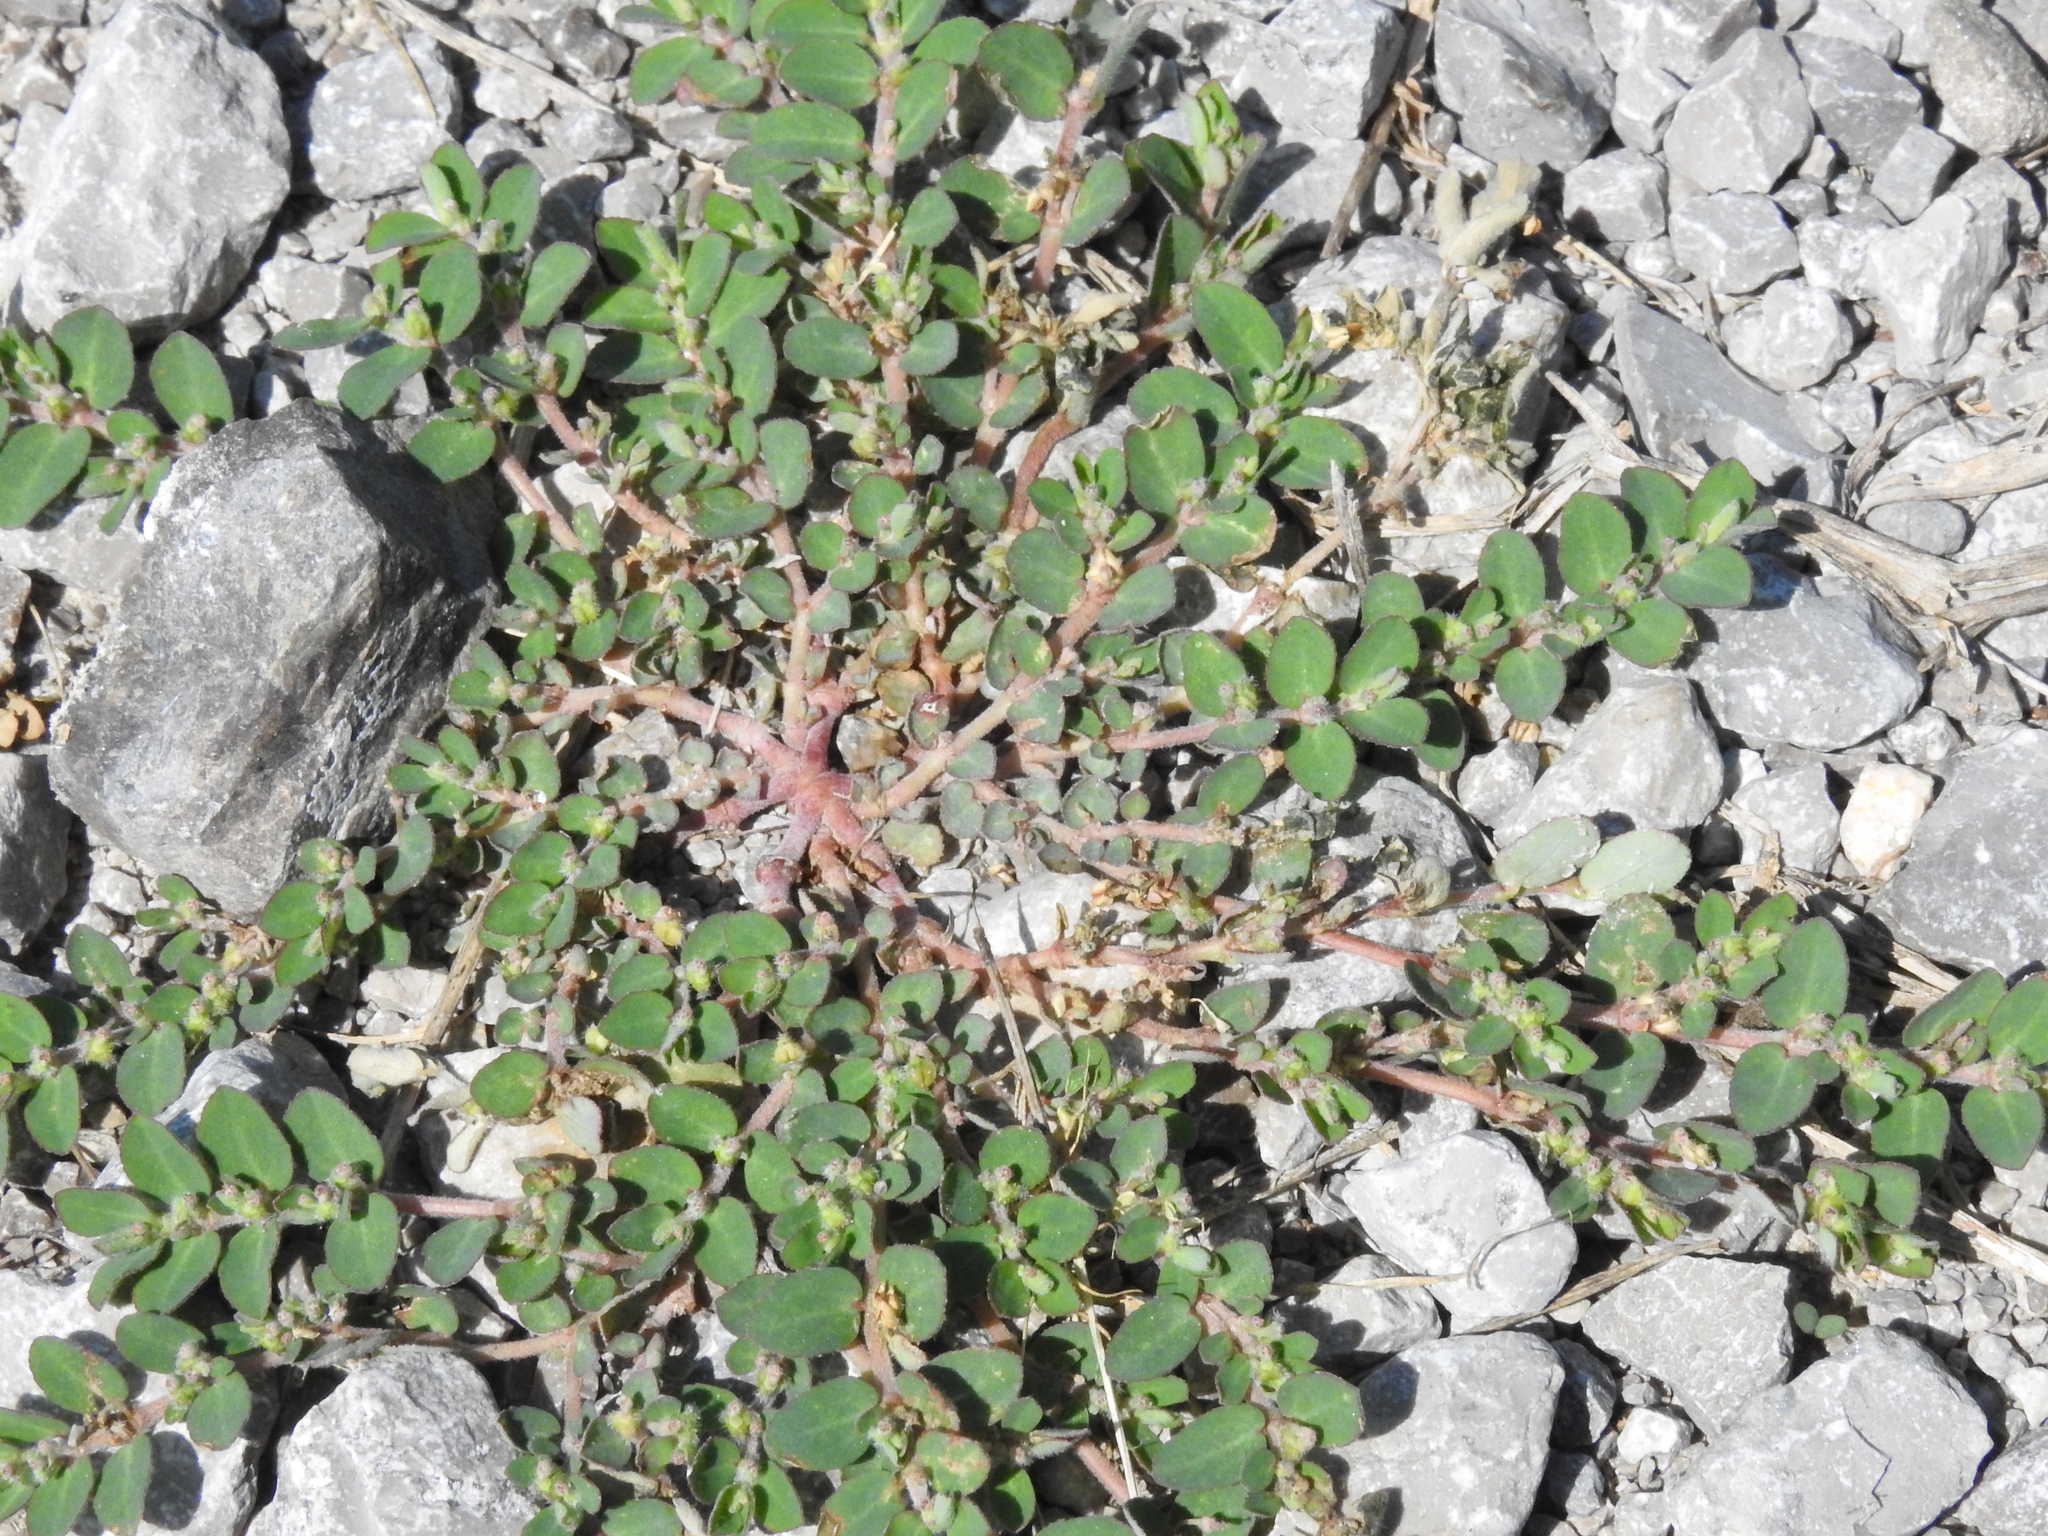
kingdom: Plantae
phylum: Tracheophyta
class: Magnoliopsida
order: Malpighiales
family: Euphorbiaceae
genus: Euphorbia
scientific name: Euphorbia prostrata
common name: Prostrate sandmat
